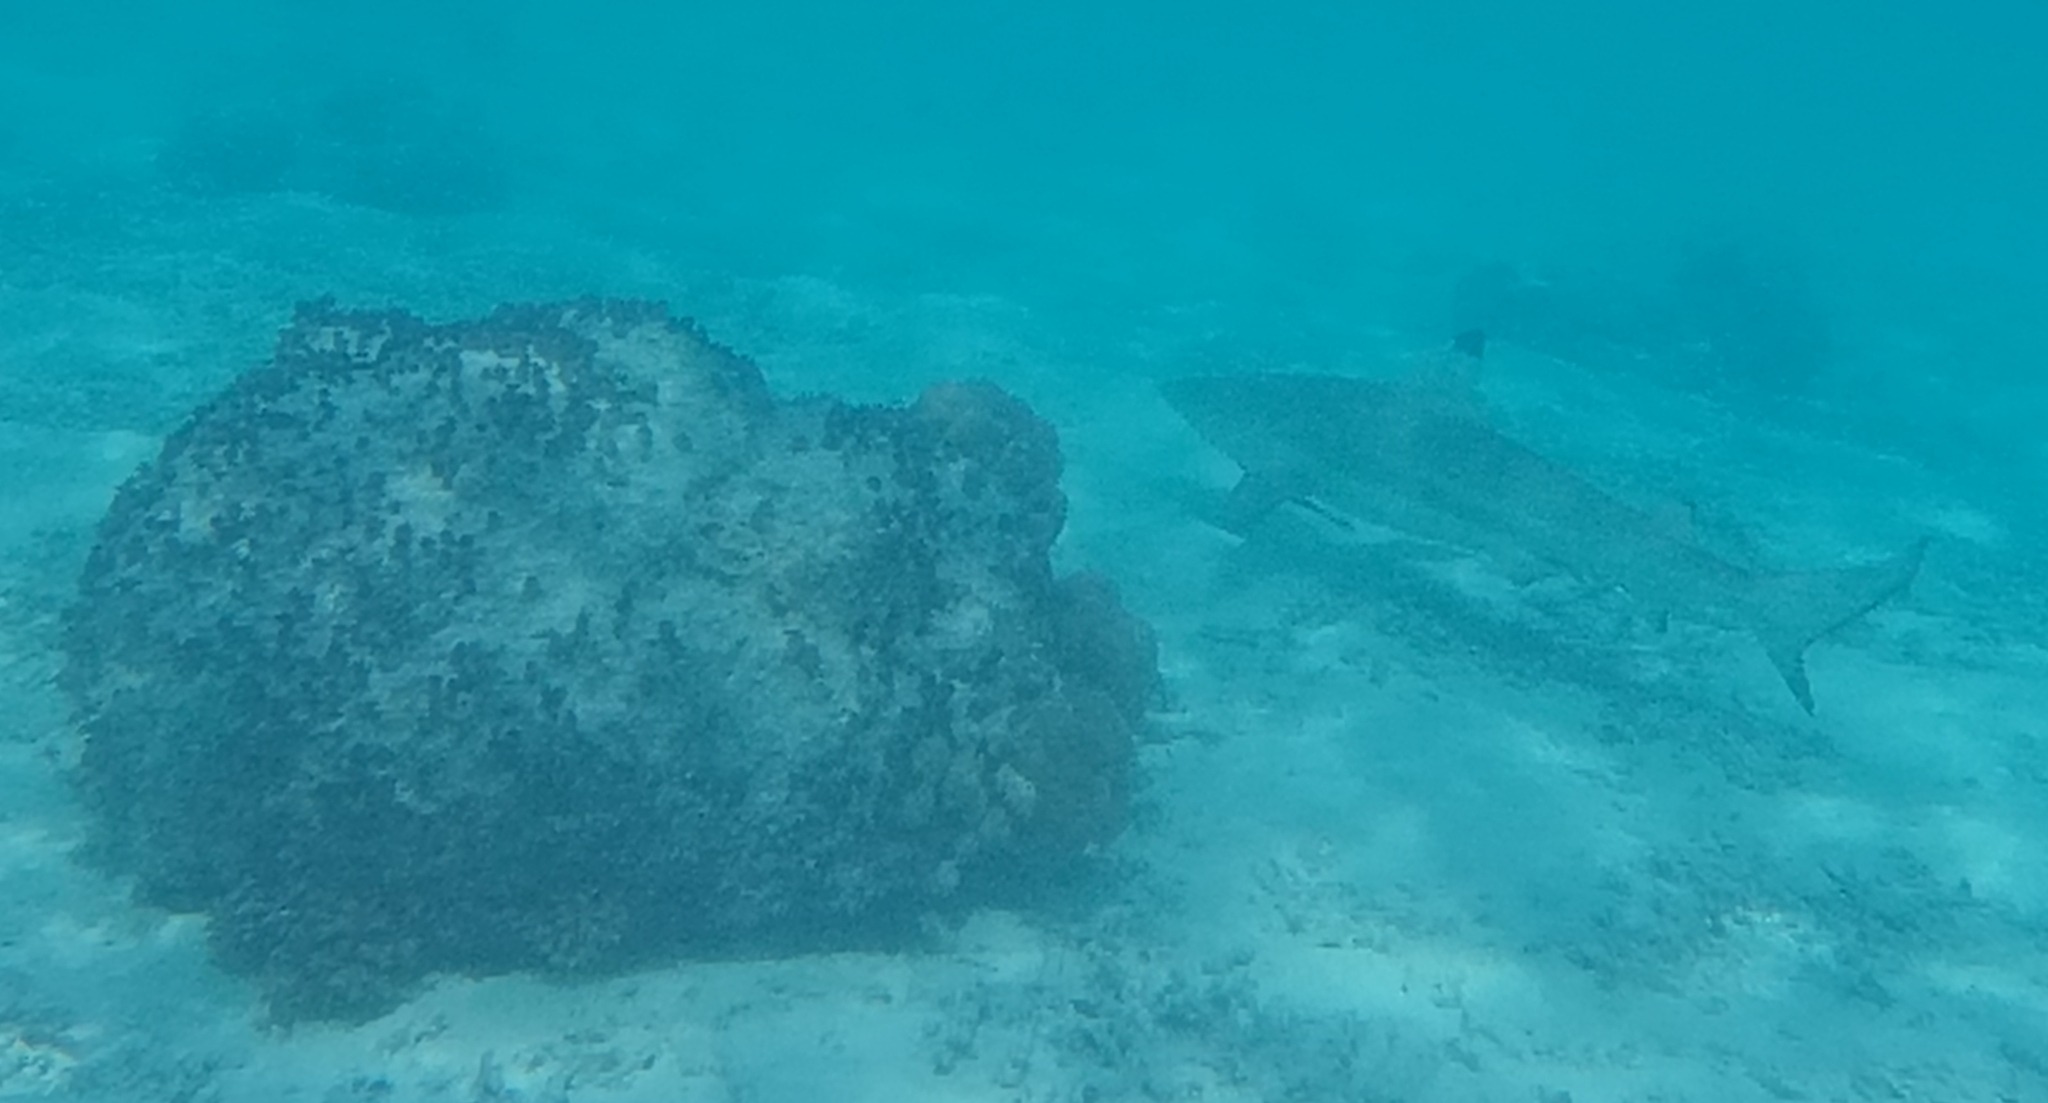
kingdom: Animalia
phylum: Chordata
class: Elasmobranchii
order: Carcharhiniformes
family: Carcharhinidae
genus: Carcharhinus
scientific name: Carcharhinus melanopterus
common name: Blacktip reef shark
